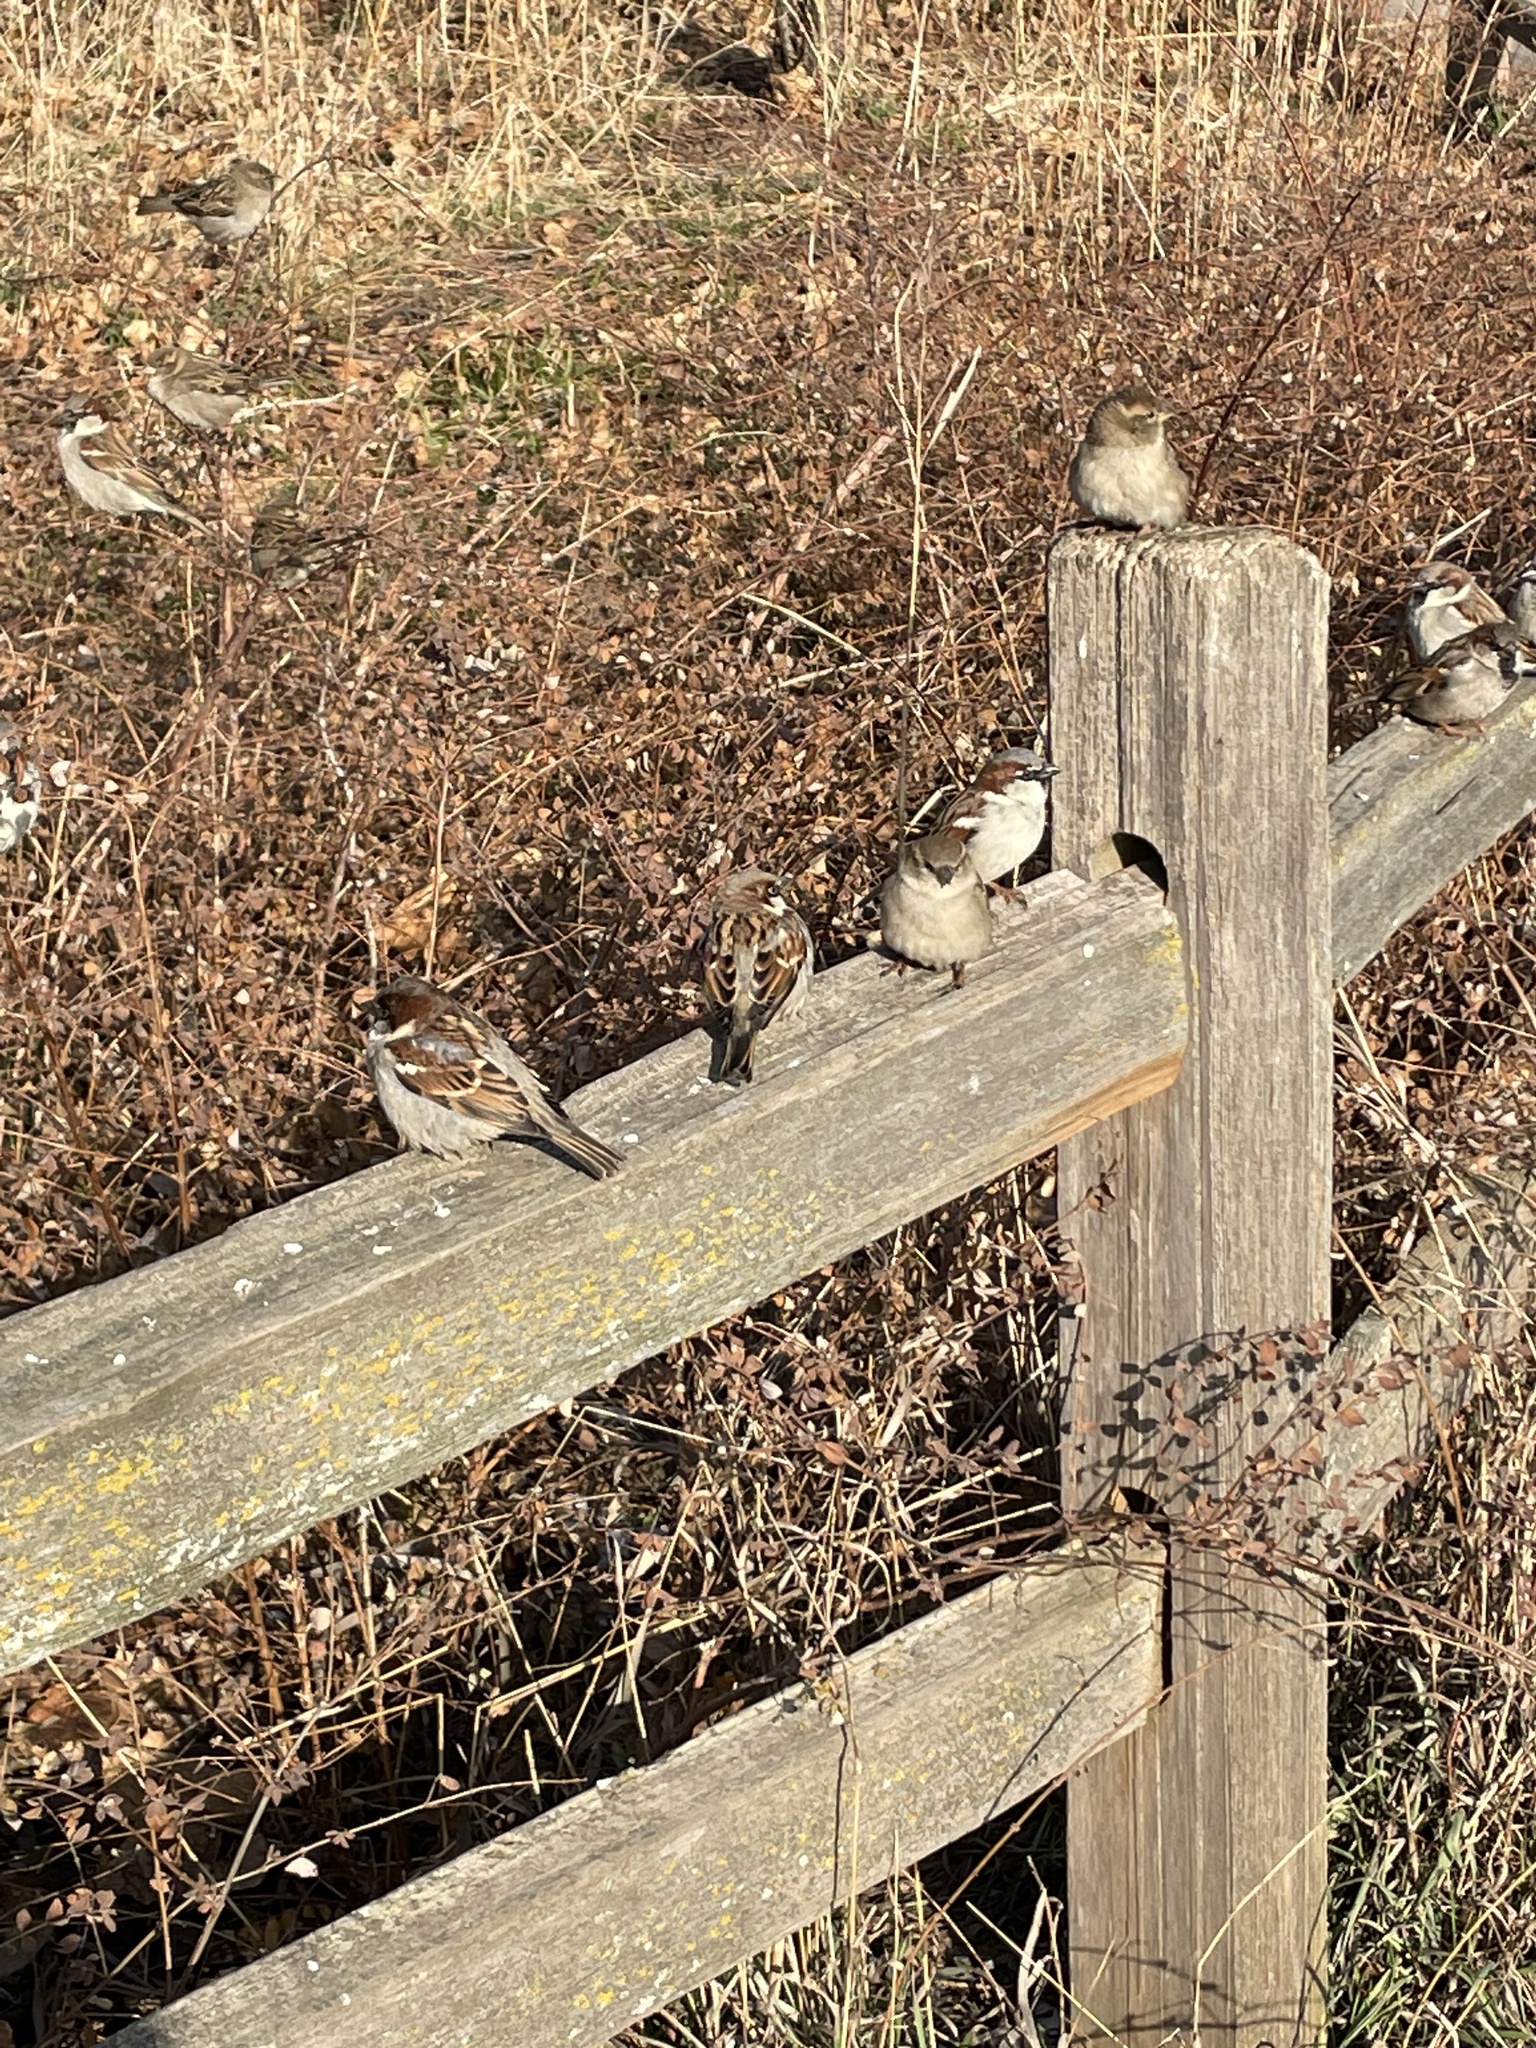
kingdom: Animalia
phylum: Chordata
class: Aves
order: Passeriformes
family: Passeridae
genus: Passer
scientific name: Passer domesticus
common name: House sparrow
